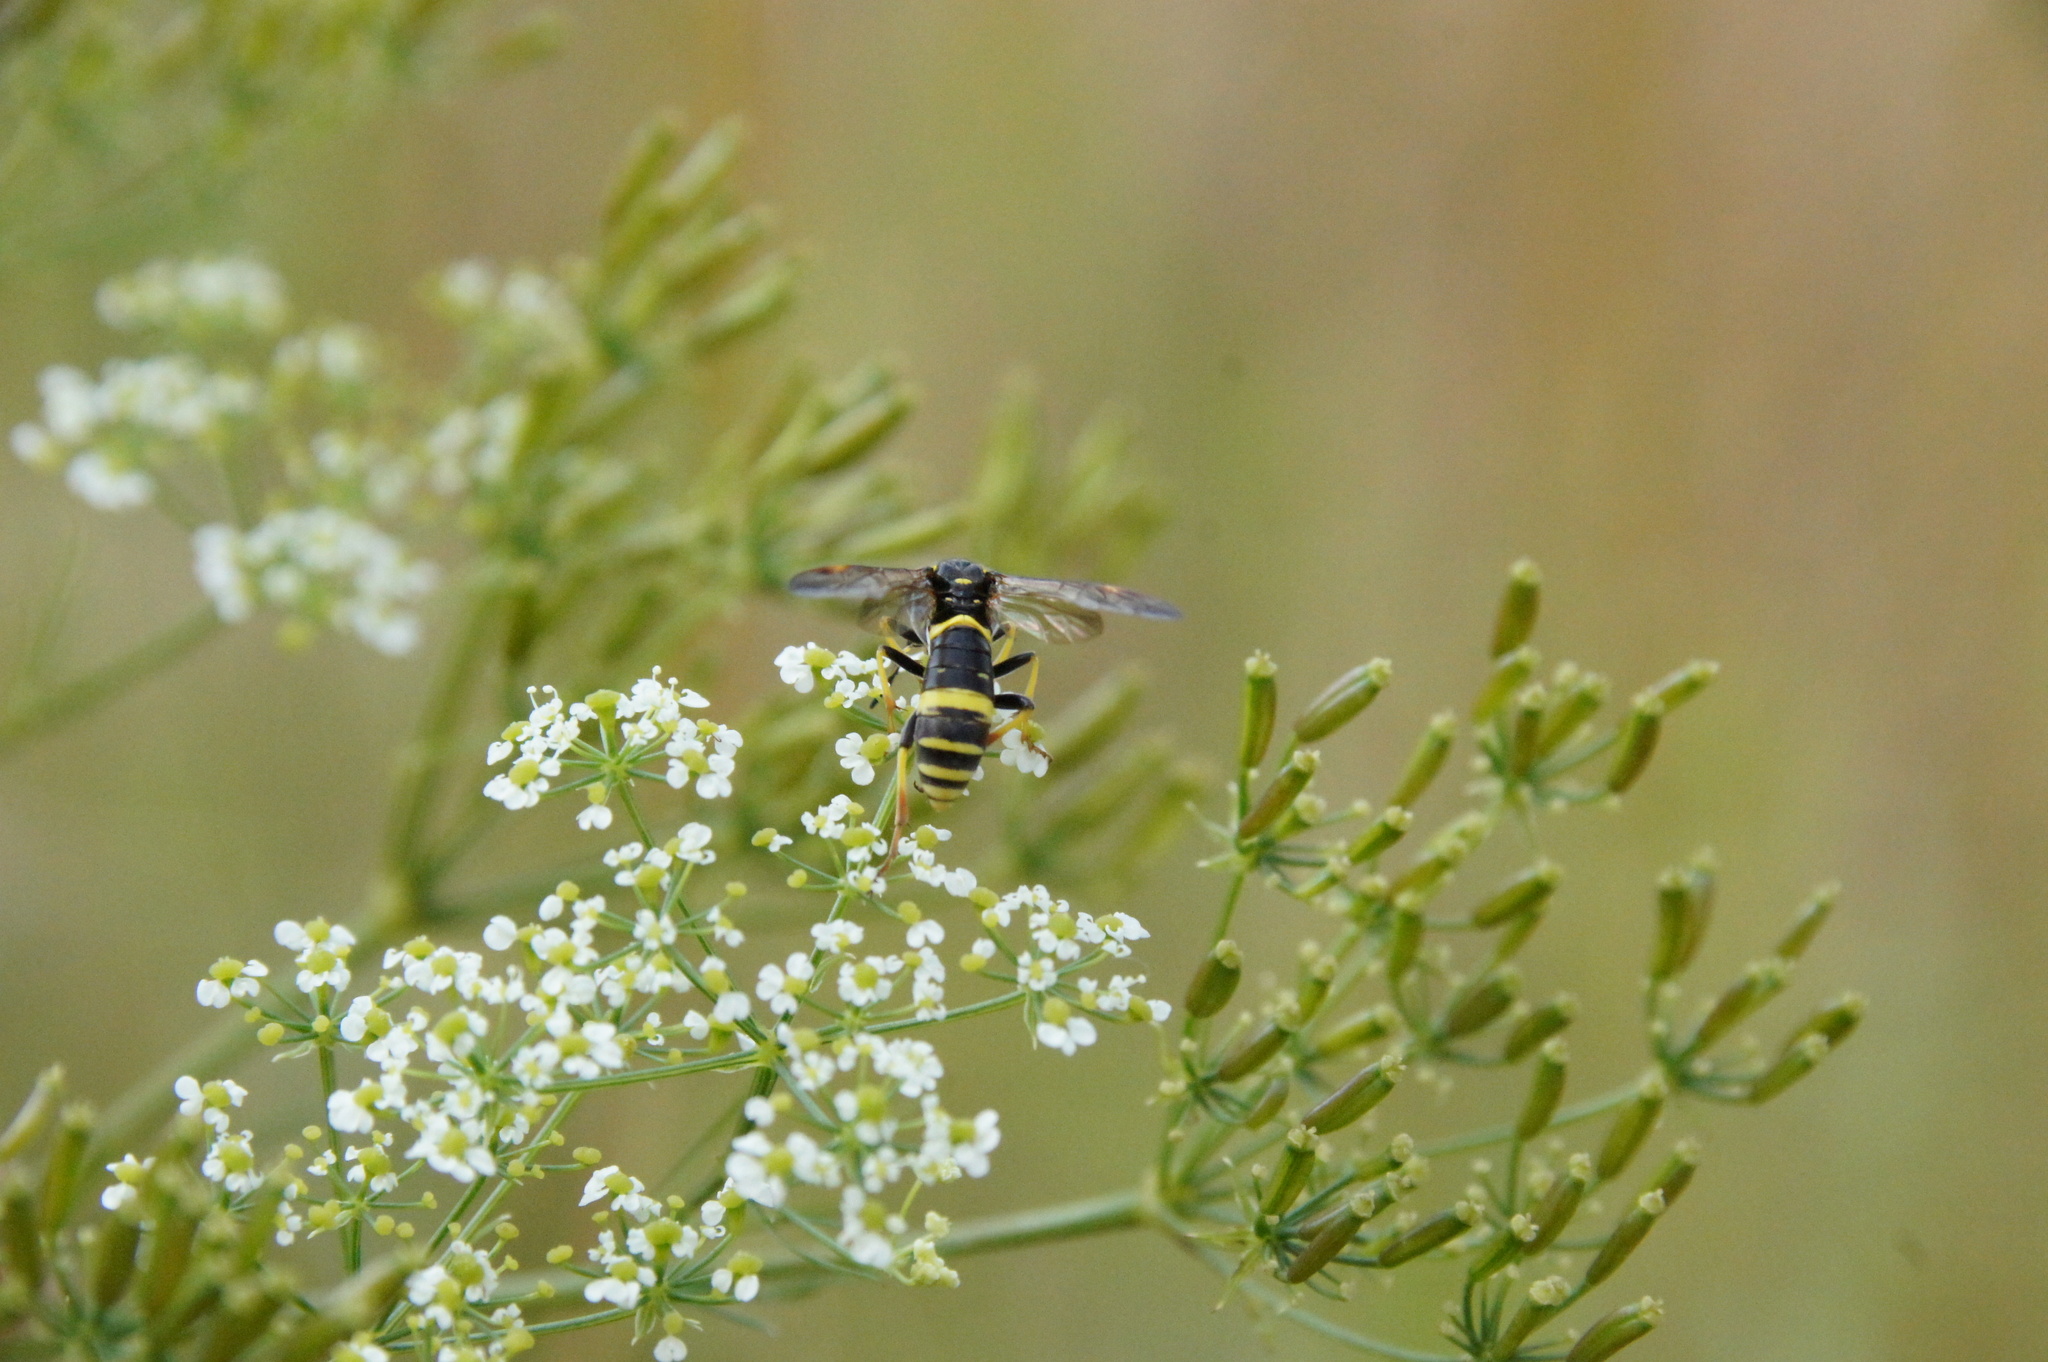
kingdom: Animalia
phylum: Arthropoda
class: Insecta
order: Hymenoptera
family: Tenthredinidae
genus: Tenthredo
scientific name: Tenthredo amoena
